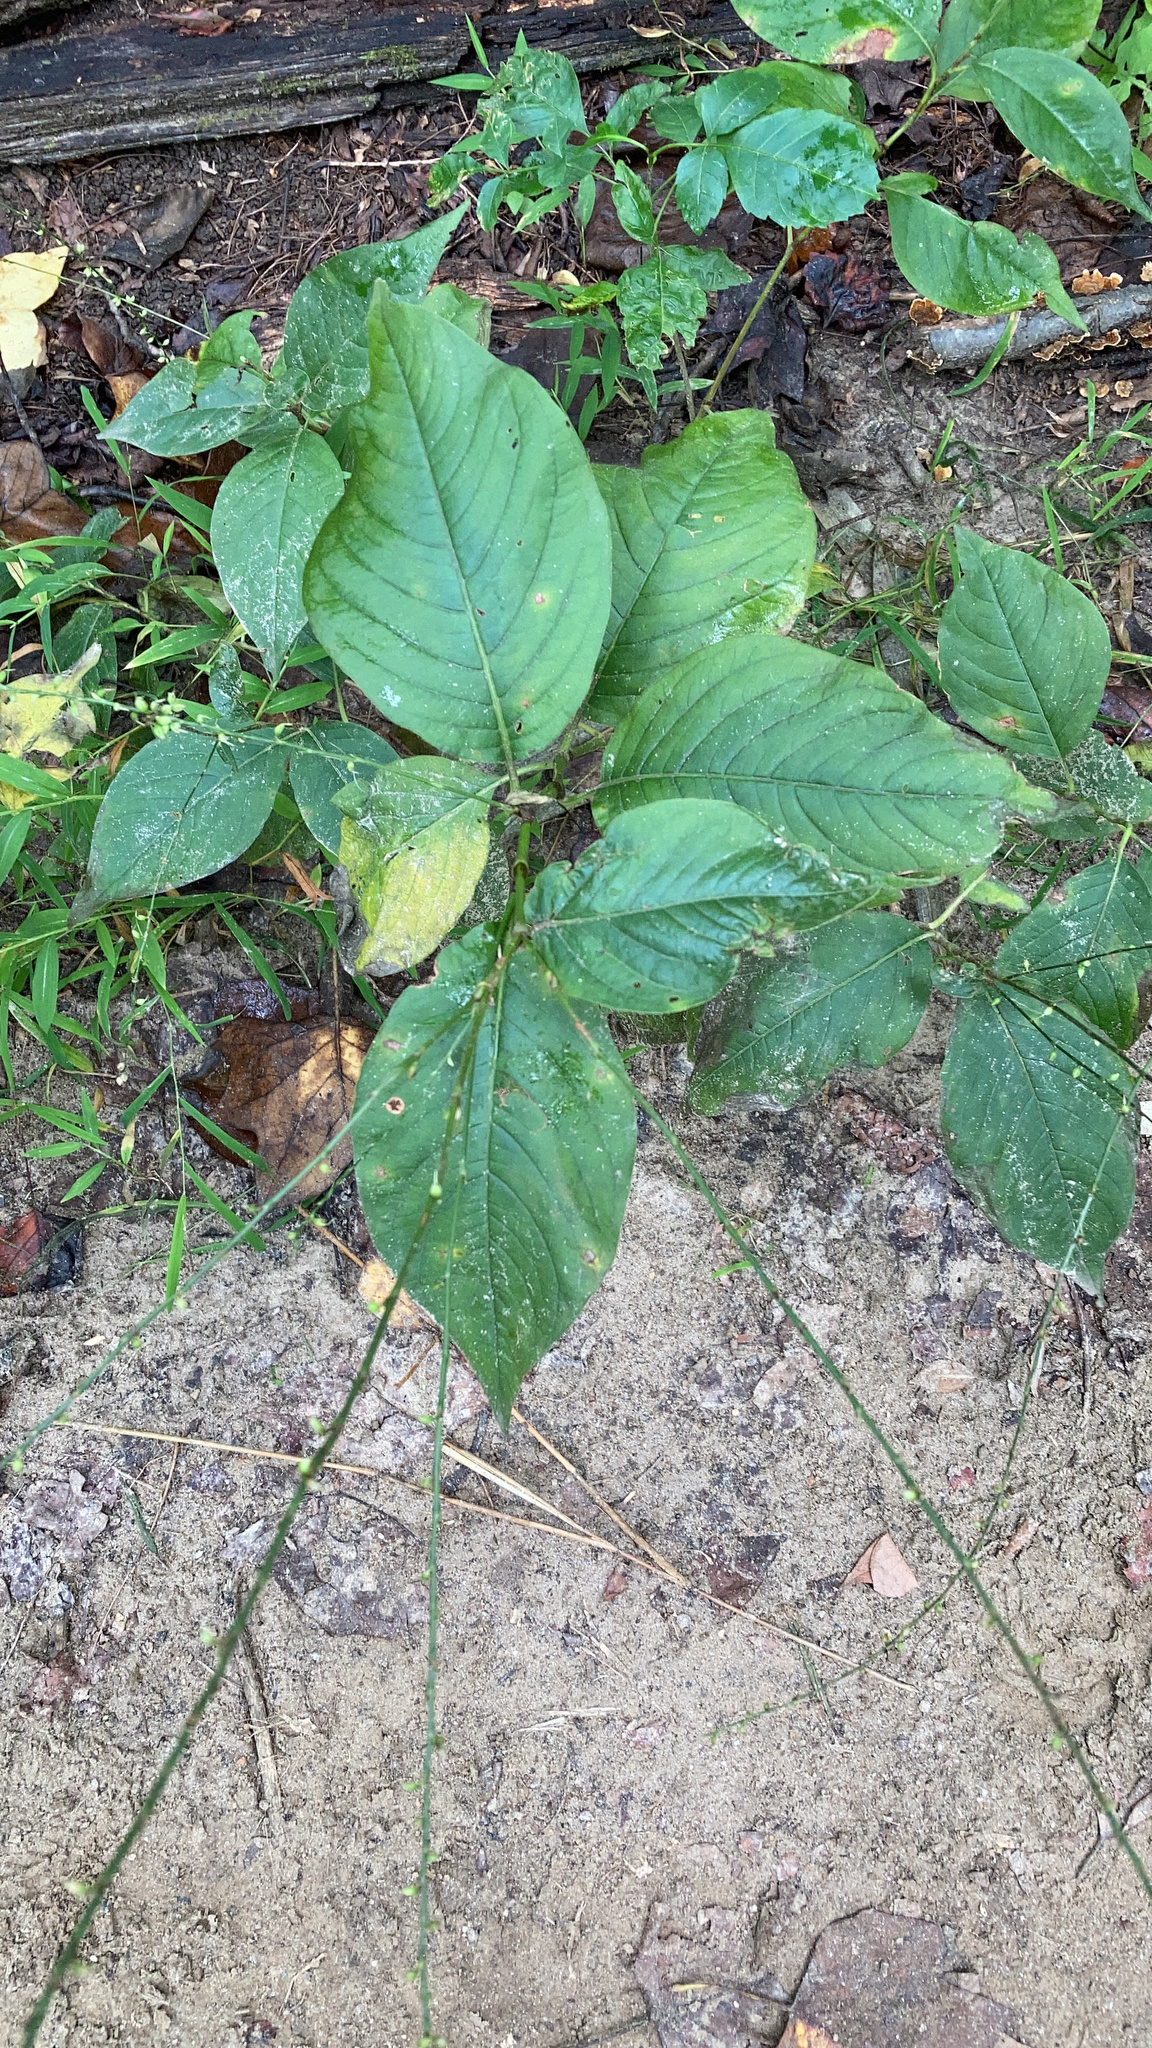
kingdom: Plantae
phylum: Tracheophyta
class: Magnoliopsida
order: Caryophyllales
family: Polygonaceae
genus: Persicaria
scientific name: Persicaria virginiana
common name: Jumpseed
